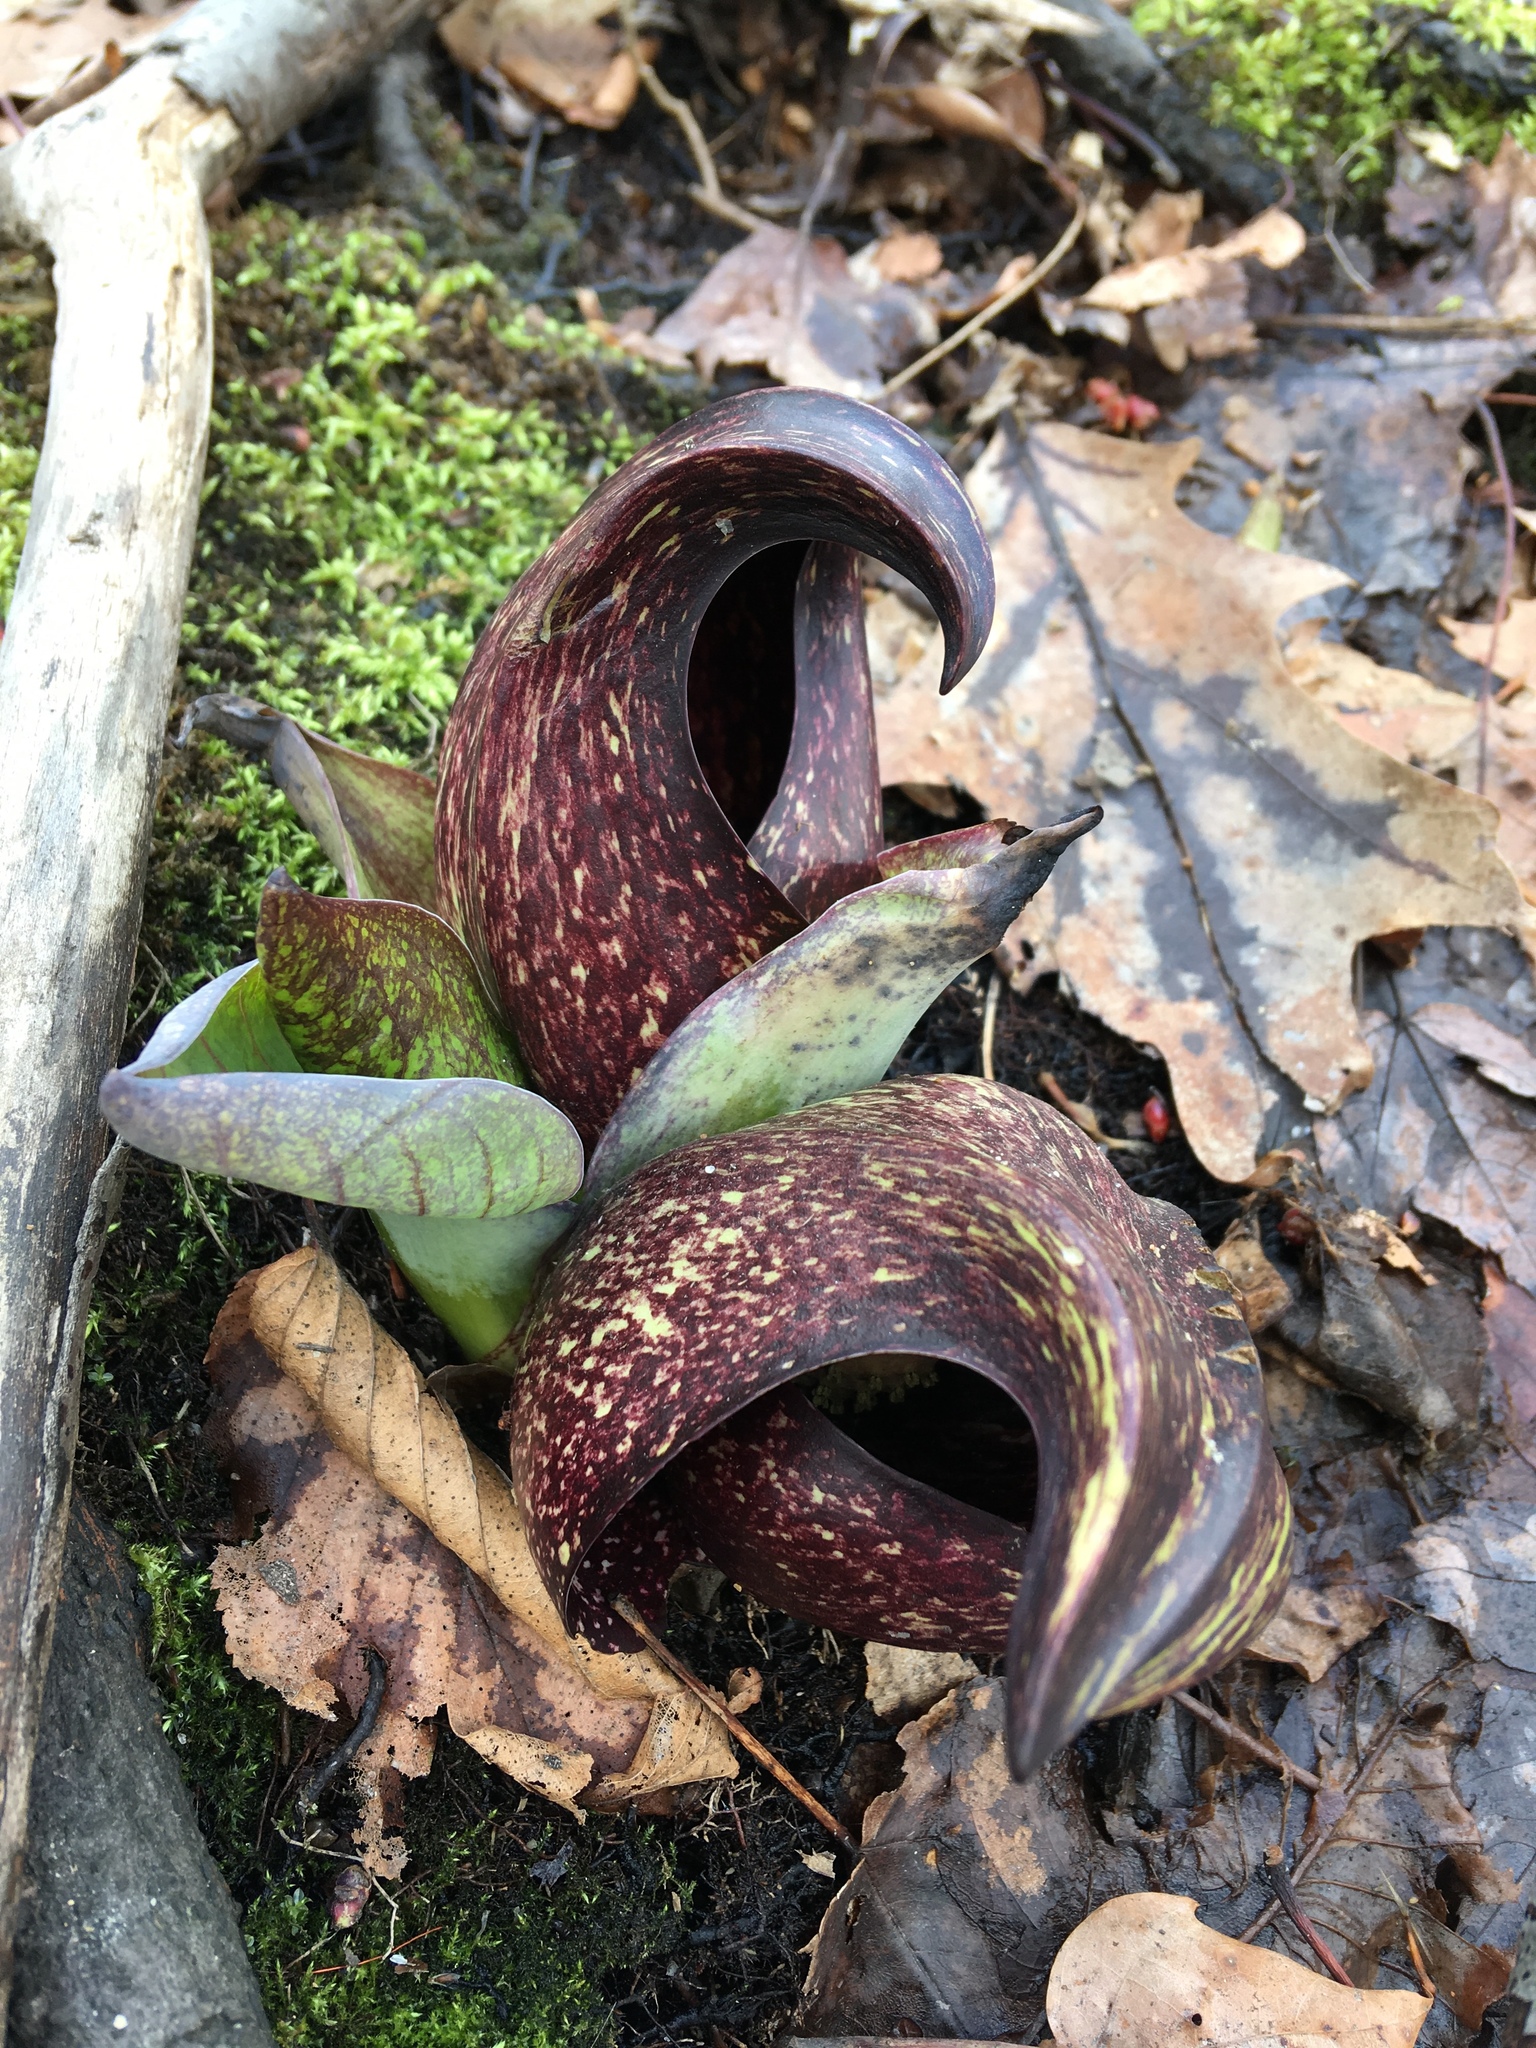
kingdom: Plantae
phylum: Tracheophyta
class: Liliopsida
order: Alismatales
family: Araceae
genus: Symplocarpus
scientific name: Symplocarpus foetidus
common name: Eastern skunk cabbage
